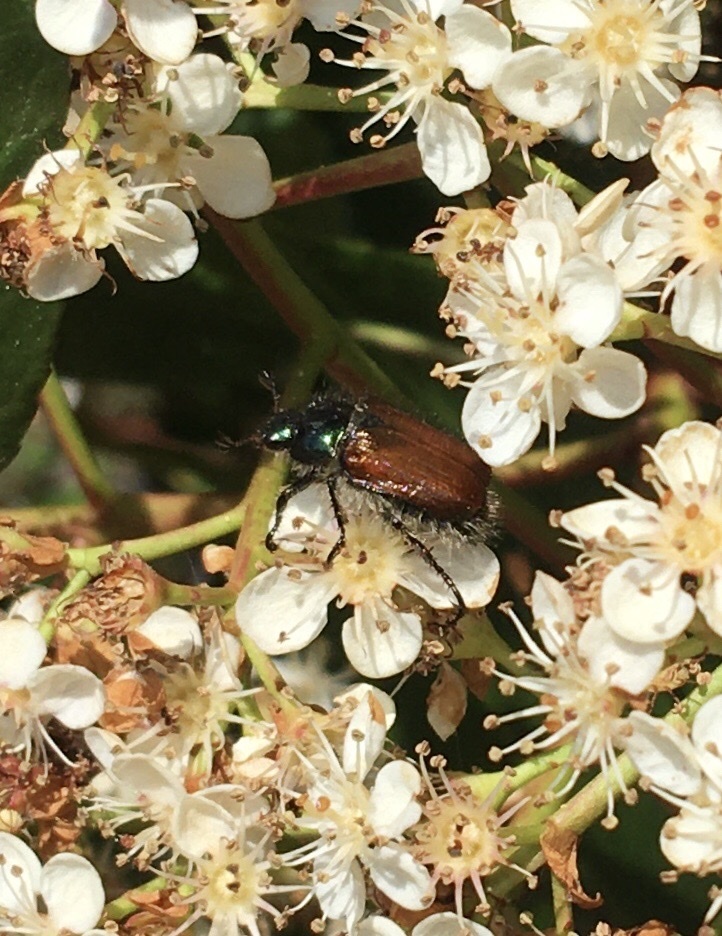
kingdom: Animalia
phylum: Arthropoda
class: Insecta
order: Coleoptera
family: Scarabaeidae
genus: Phyllopertha
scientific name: Phyllopertha horticola
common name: Garden chafer
